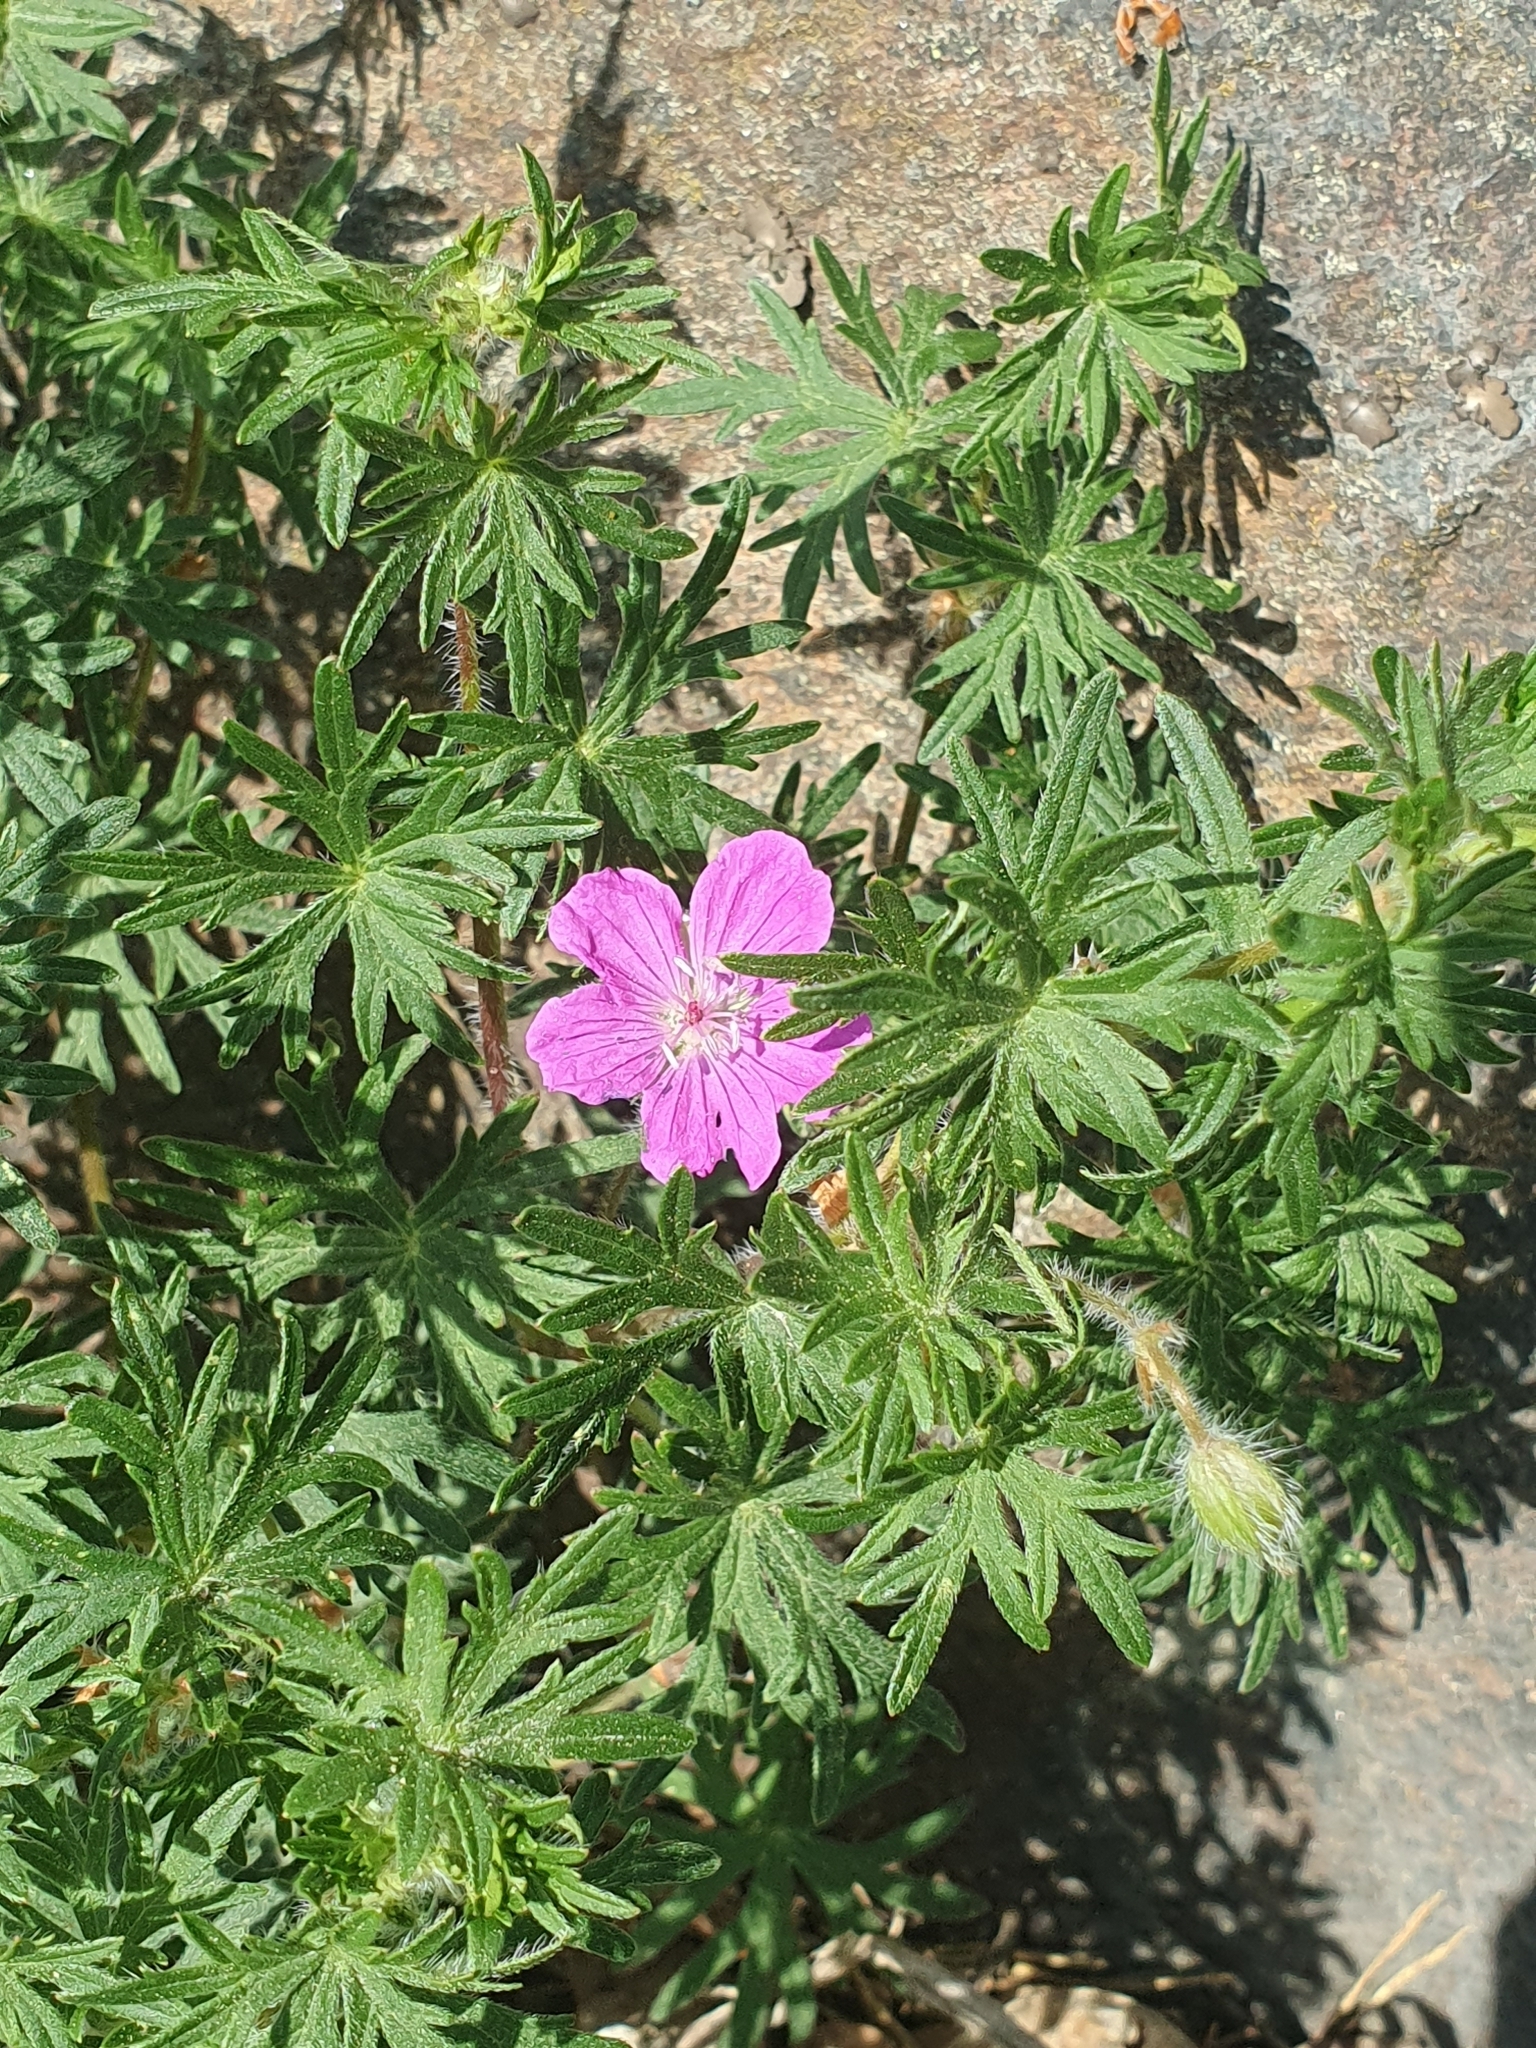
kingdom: Plantae
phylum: Tracheophyta
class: Magnoliopsida
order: Geraniales
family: Geraniaceae
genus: Geranium
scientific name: Geranium sanguineum
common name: Bloody crane's-bill
